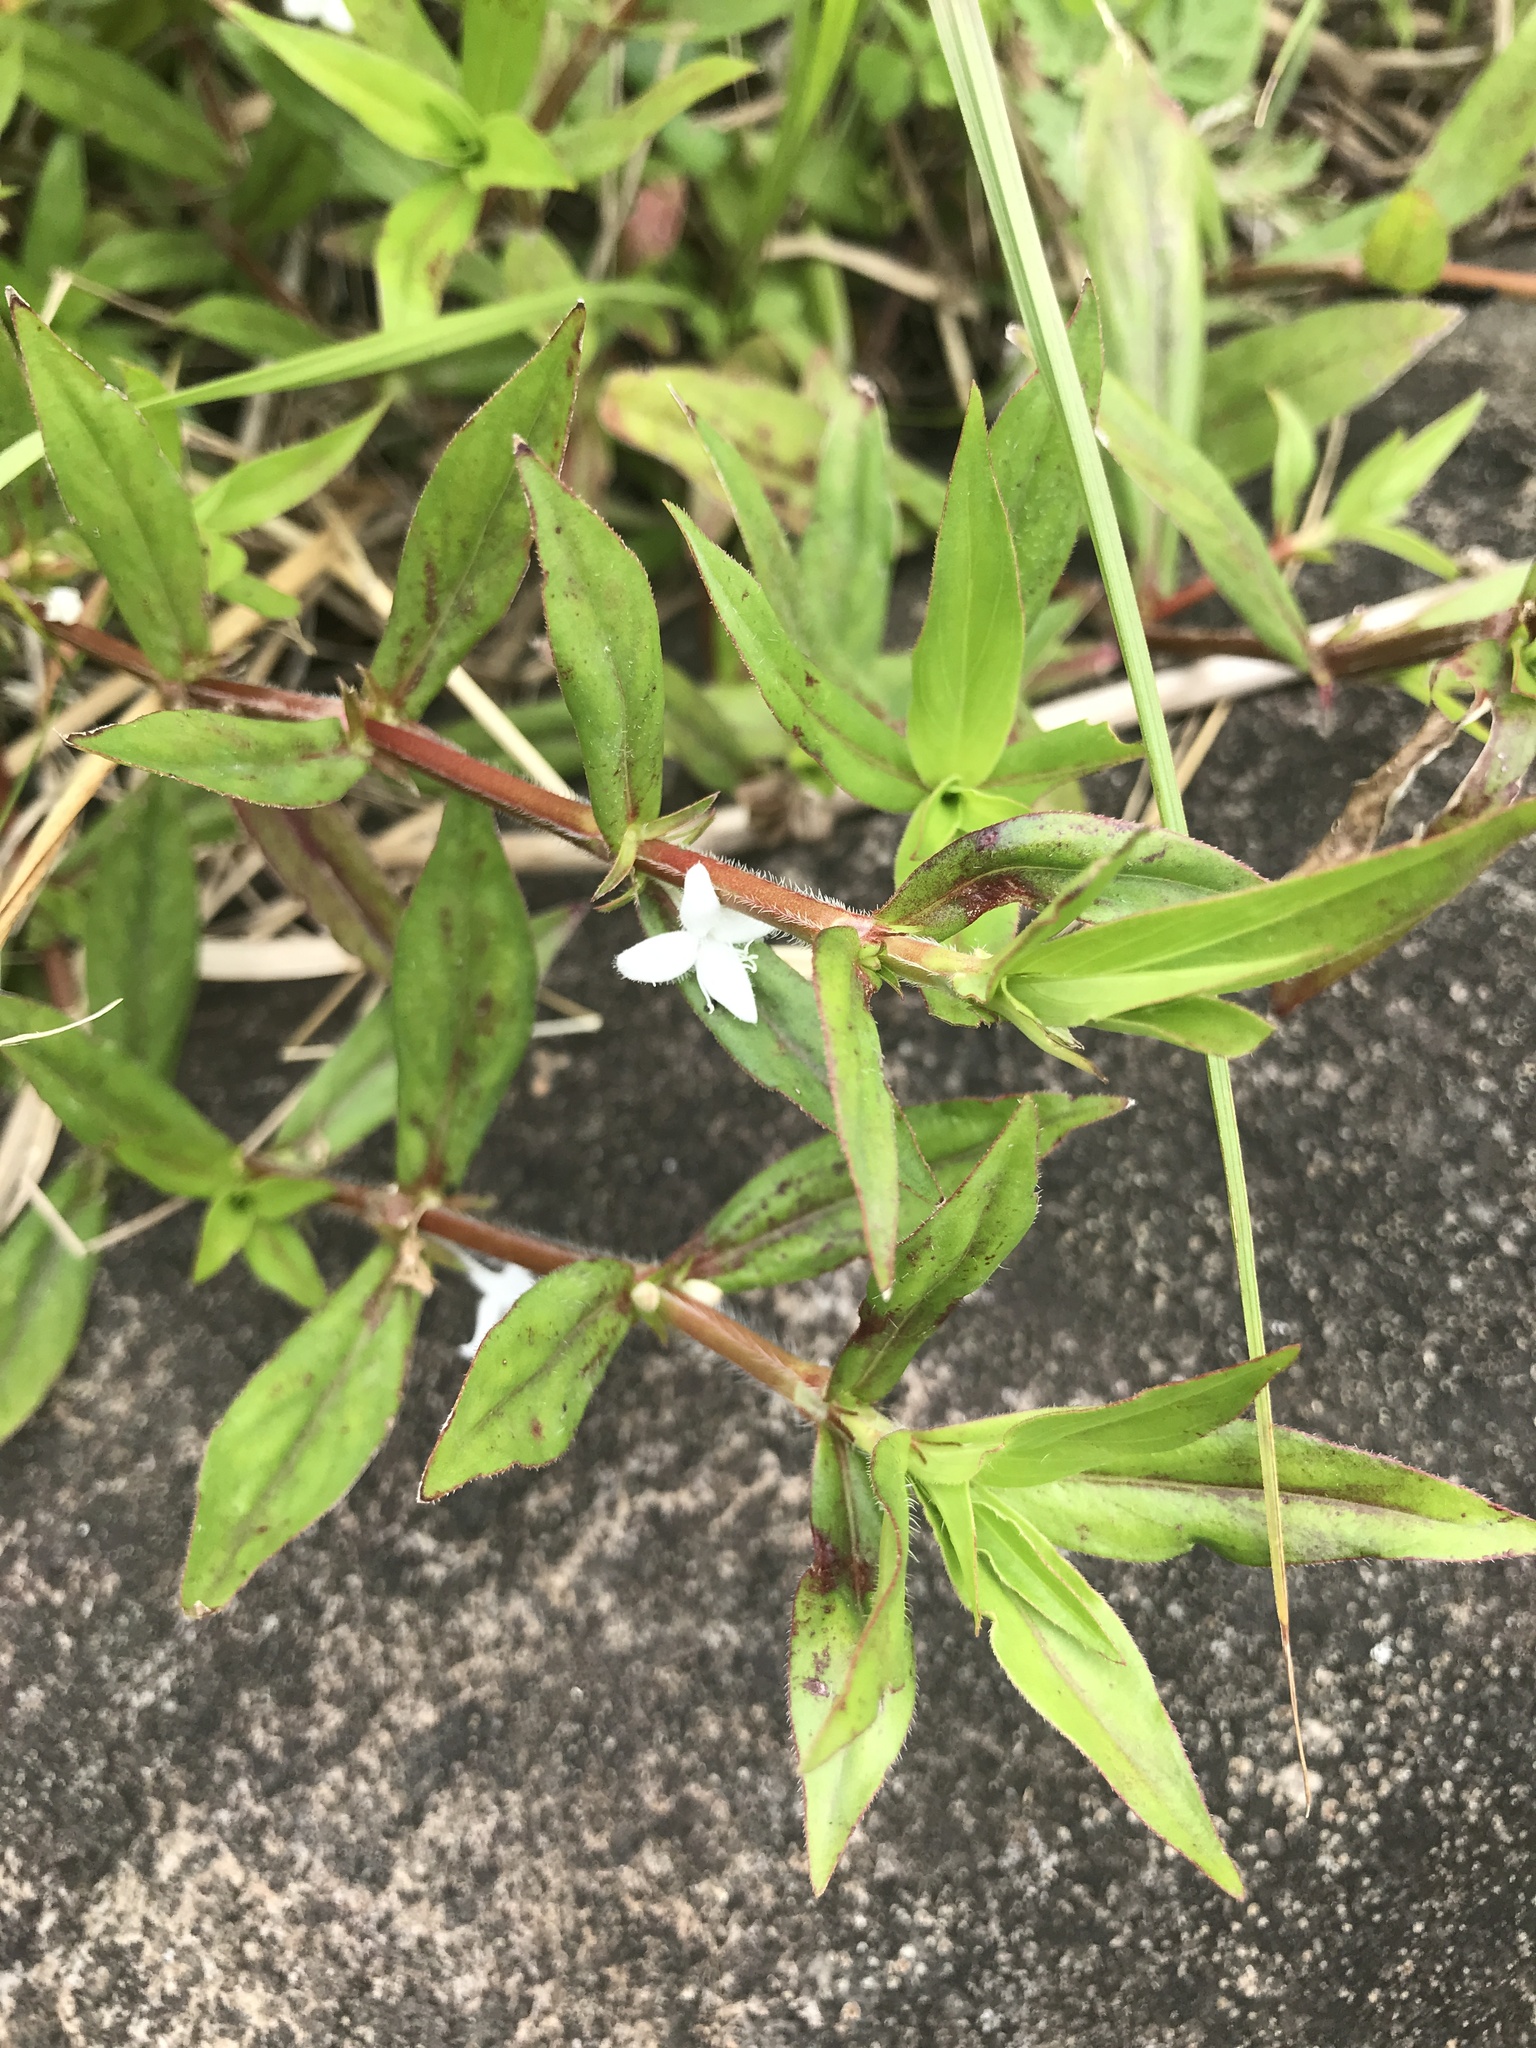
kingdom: Plantae
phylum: Tracheophyta
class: Magnoliopsida
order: Gentianales
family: Rubiaceae
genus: Diodia
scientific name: Diodia virginiana
